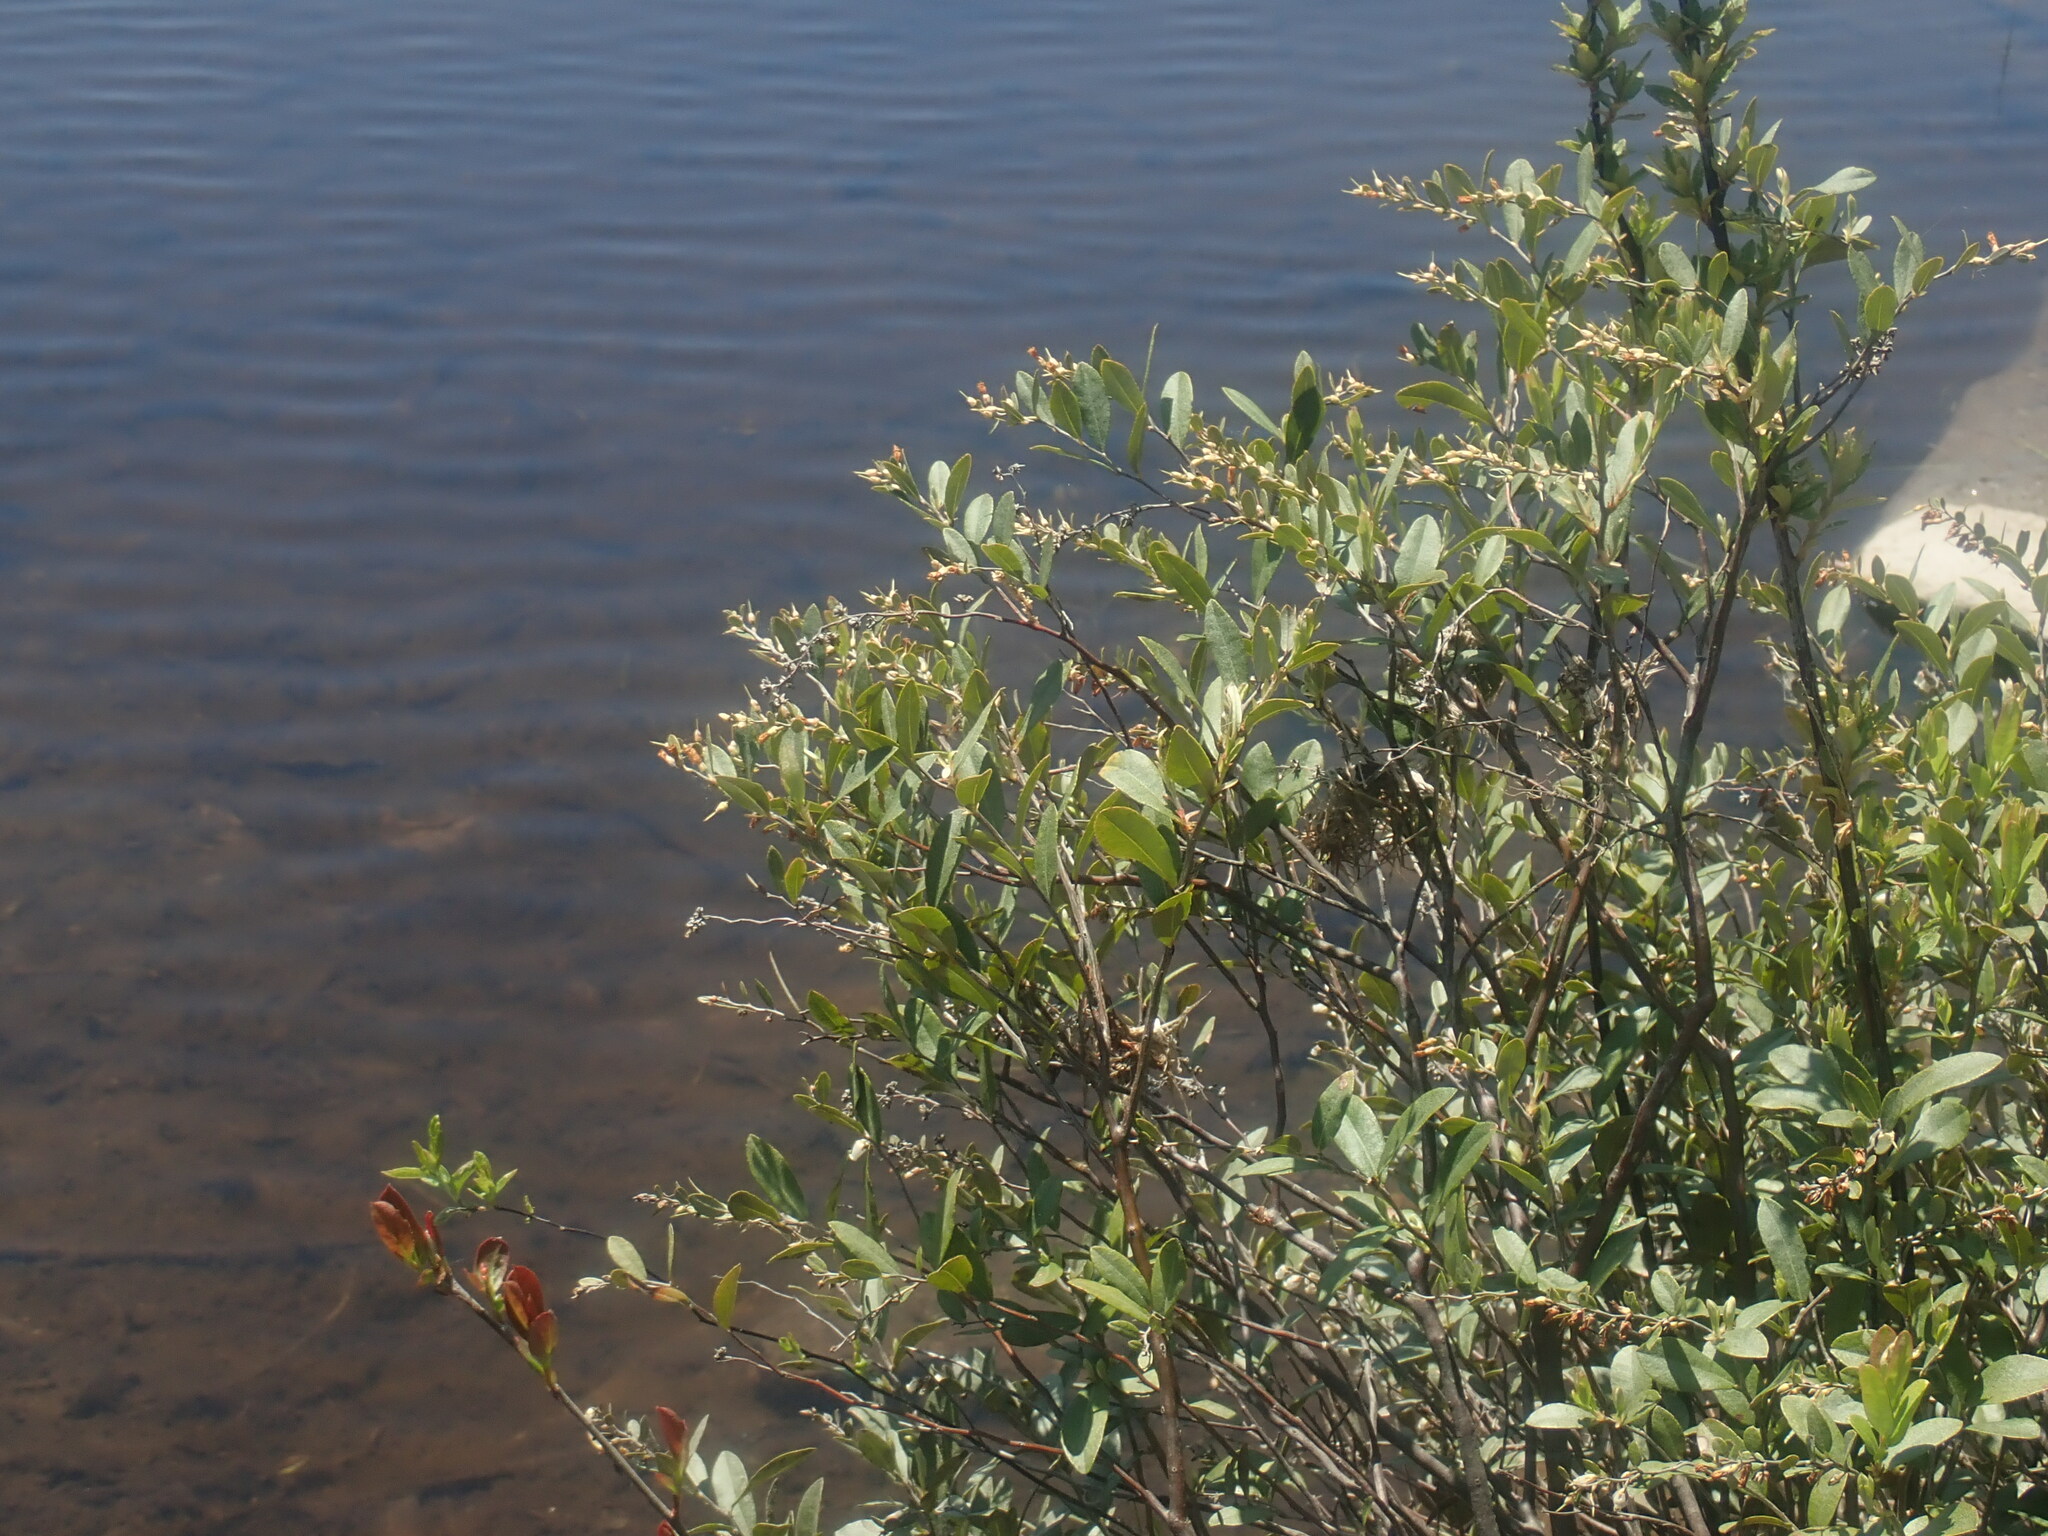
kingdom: Plantae
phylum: Tracheophyta
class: Magnoliopsida
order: Ericales
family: Ericaceae
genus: Chamaedaphne
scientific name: Chamaedaphne calyculata
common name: Leatherleaf
